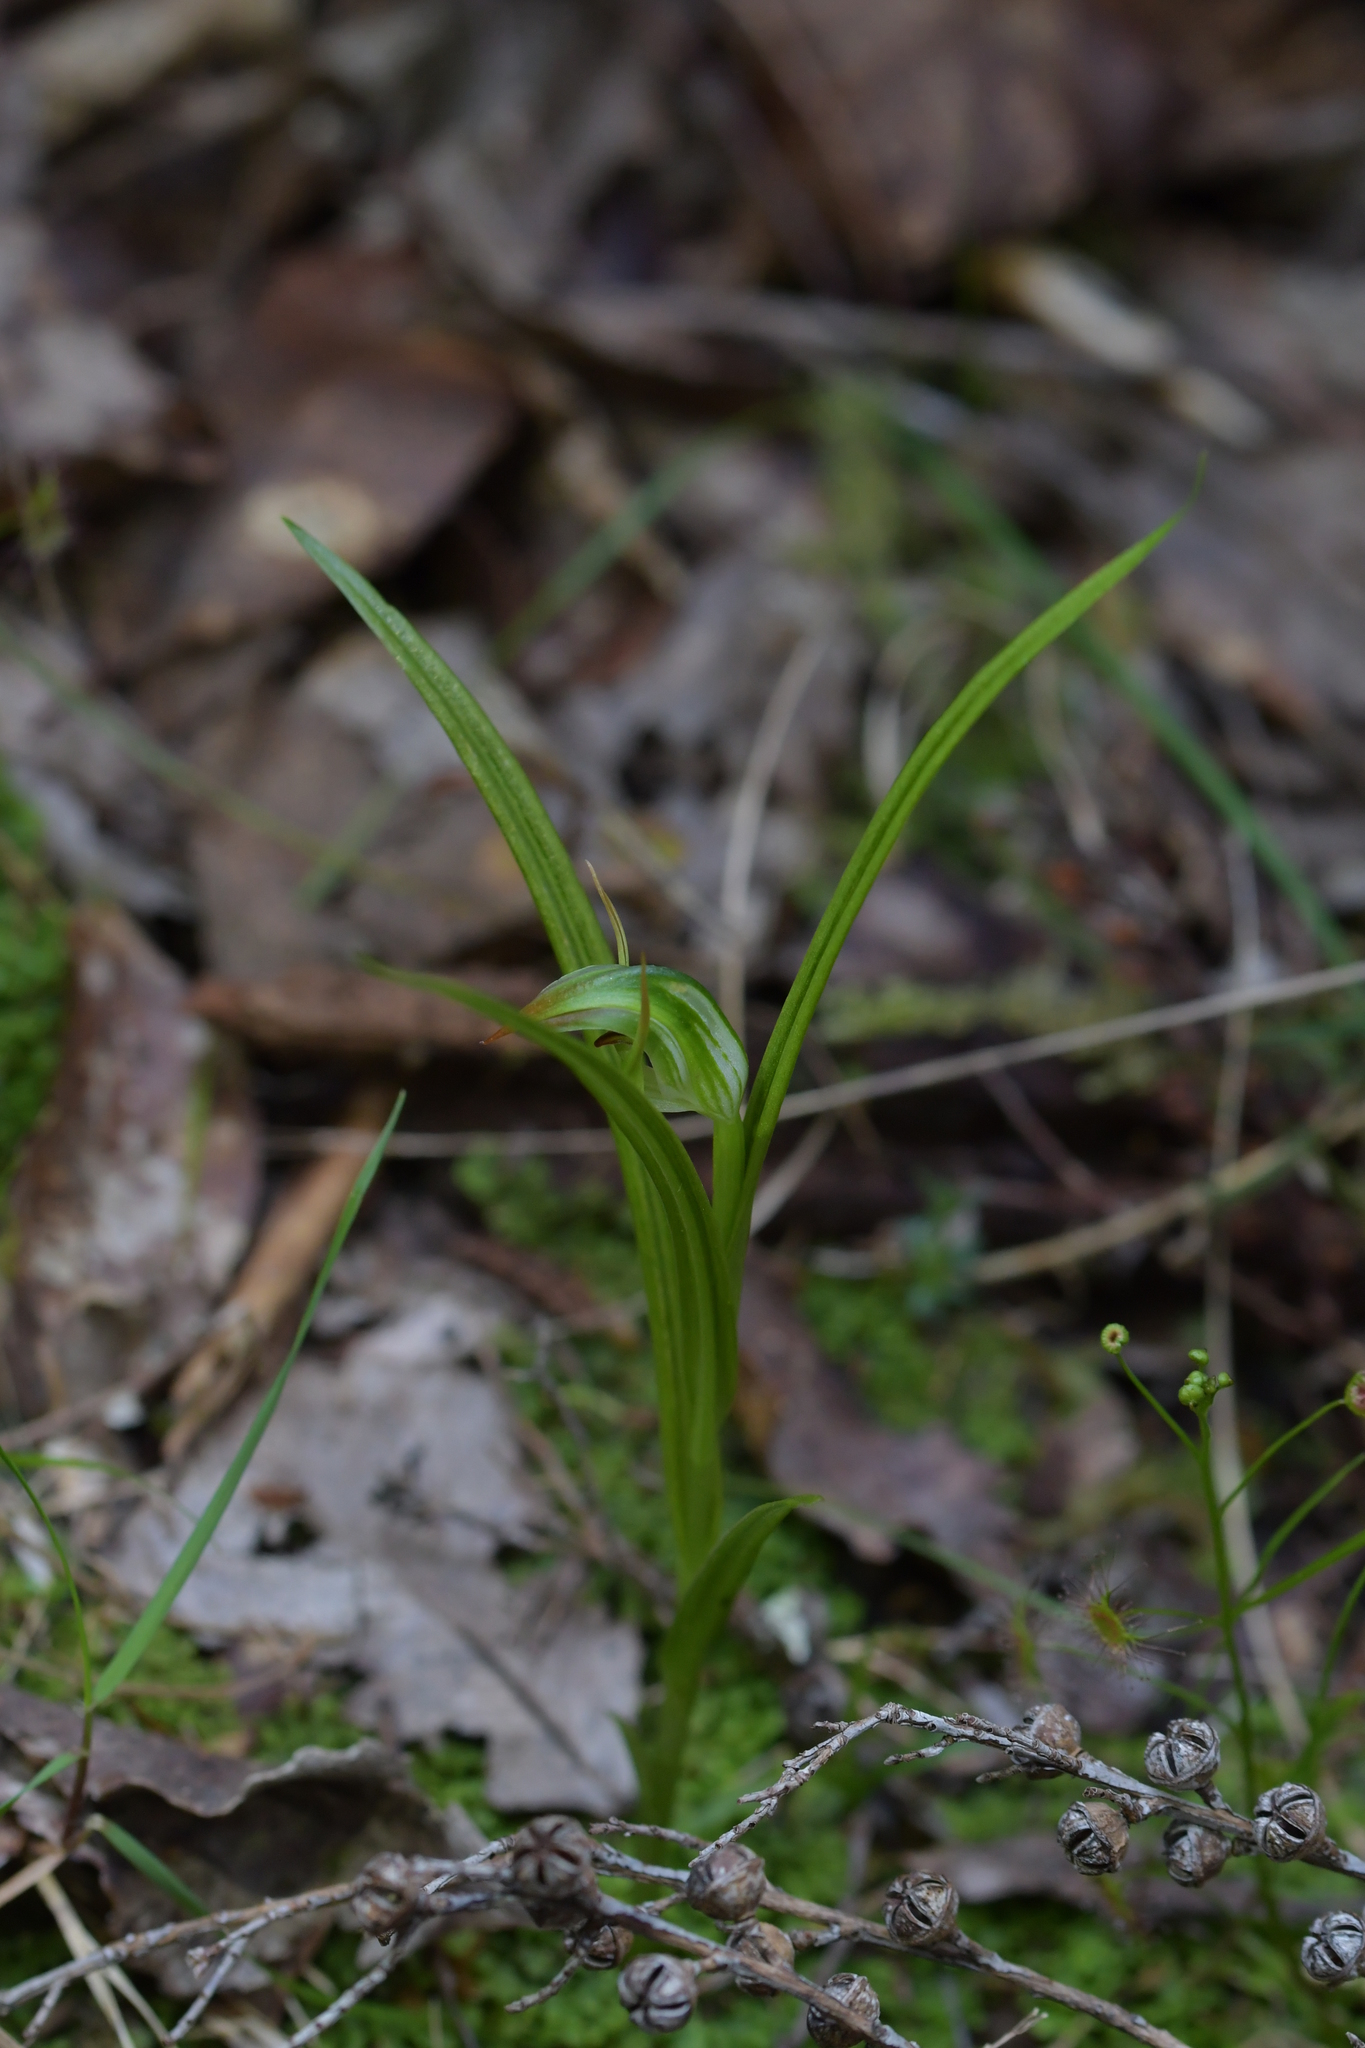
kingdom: Plantae
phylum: Tracheophyta
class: Liliopsida
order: Asparagales
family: Orchidaceae
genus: Pterostylis
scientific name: Pterostylis graminea
